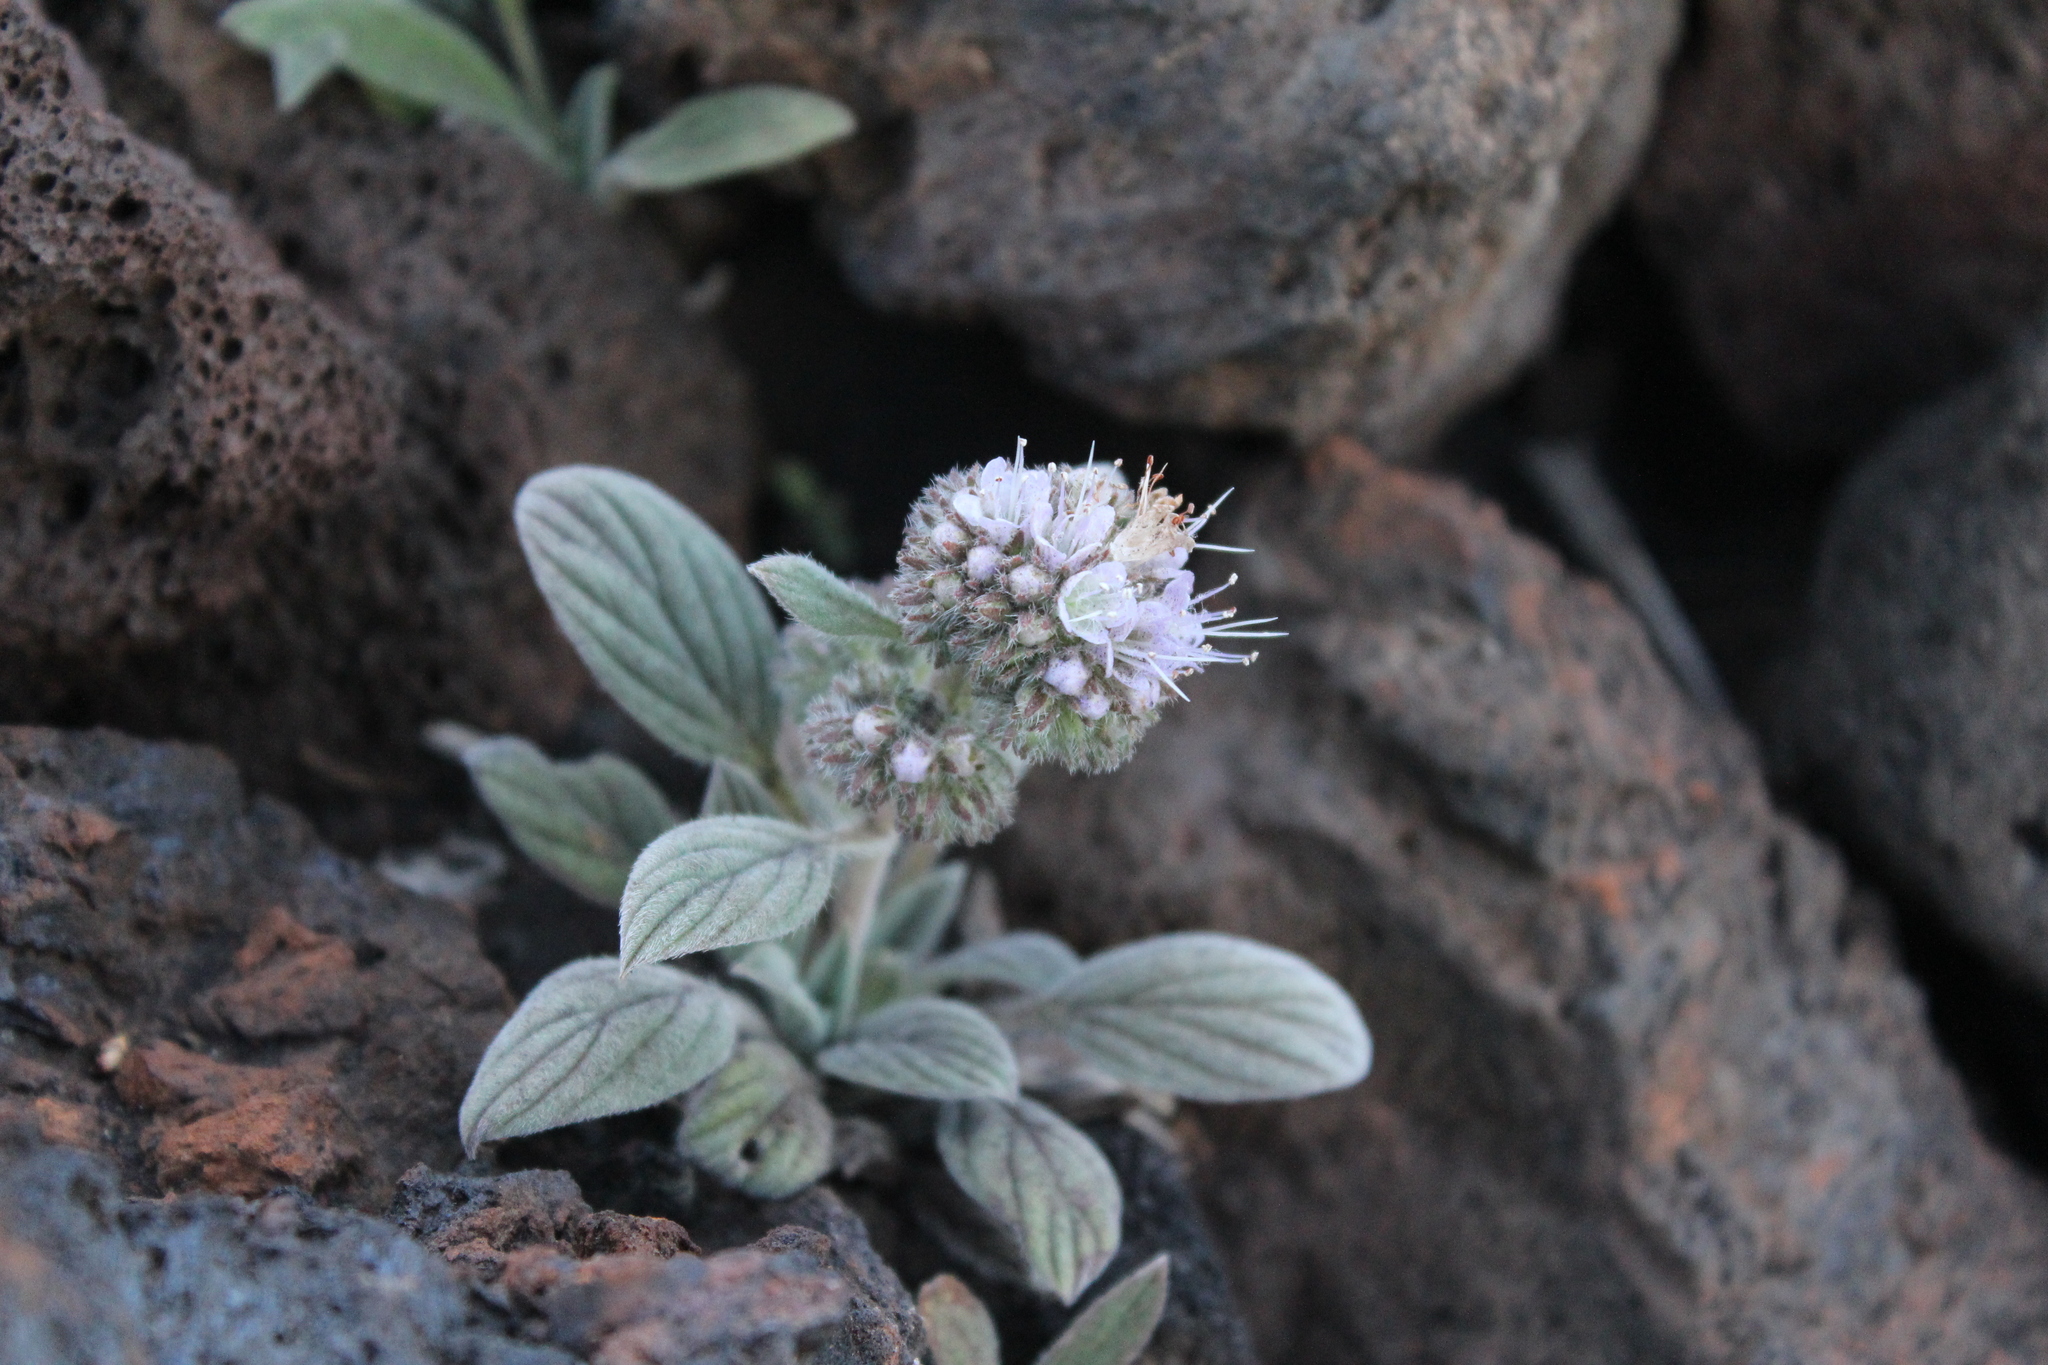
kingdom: Plantae
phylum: Tracheophyta
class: Magnoliopsida
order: Boraginales
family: Hydrophyllaceae
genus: Phacelia
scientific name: Phacelia hastata
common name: Silver-leaved phacelia
